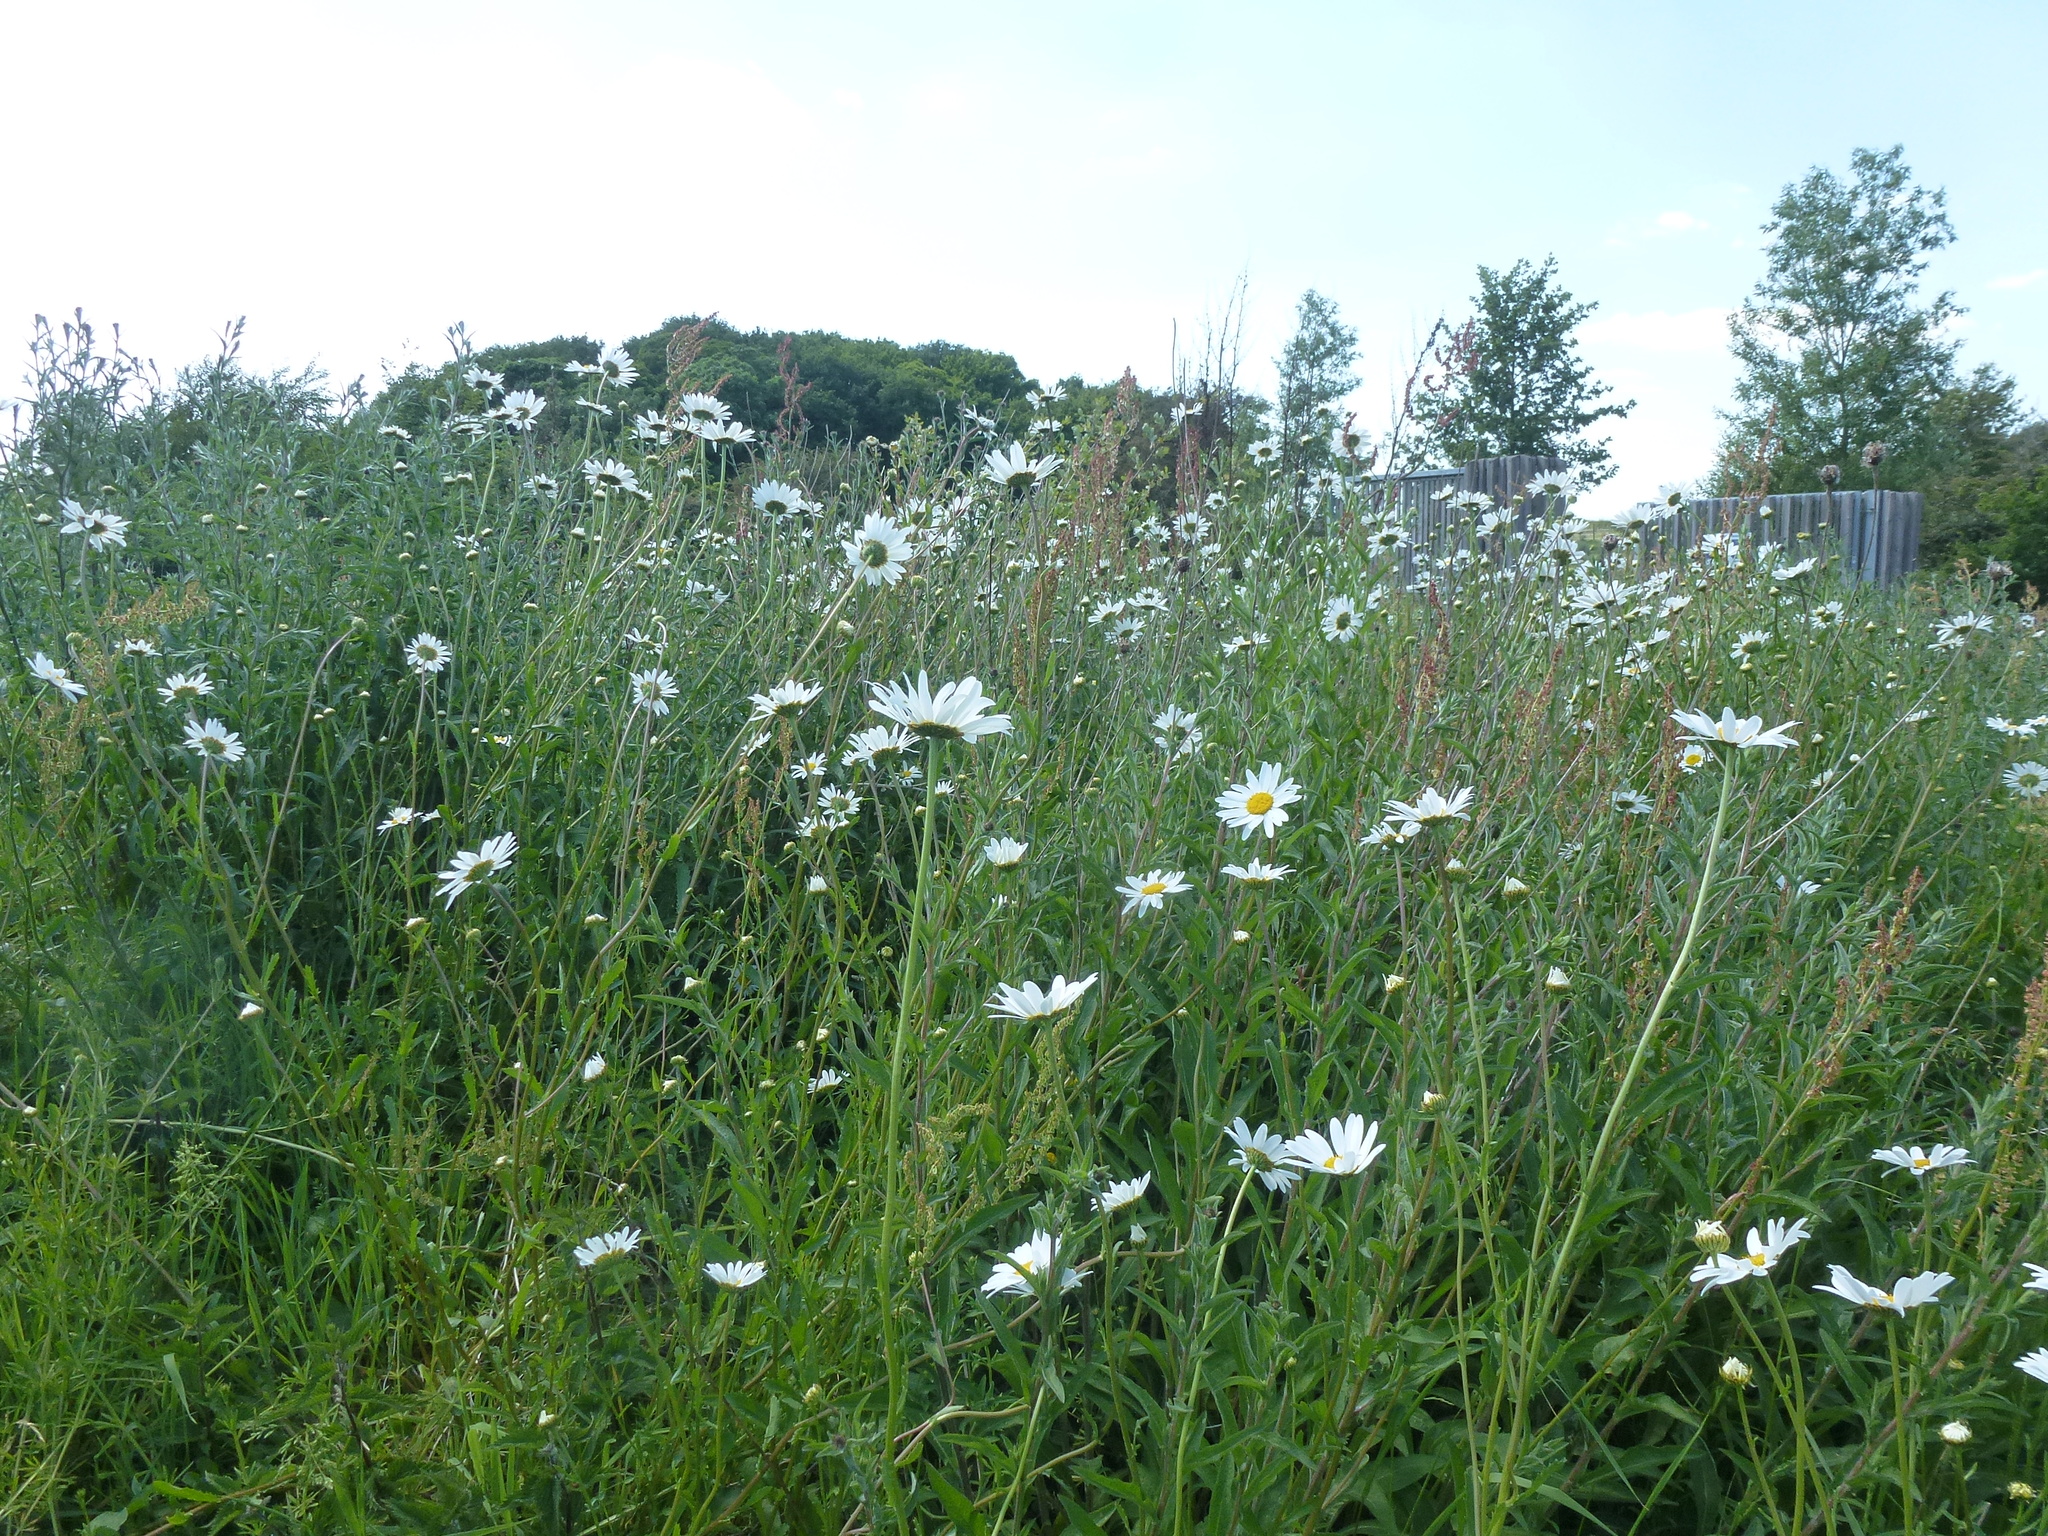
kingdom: Plantae
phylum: Tracheophyta
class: Magnoliopsida
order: Asterales
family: Asteraceae
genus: Leucanthemum
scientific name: Leucanthemum vulgare
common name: Oxeye daisy
